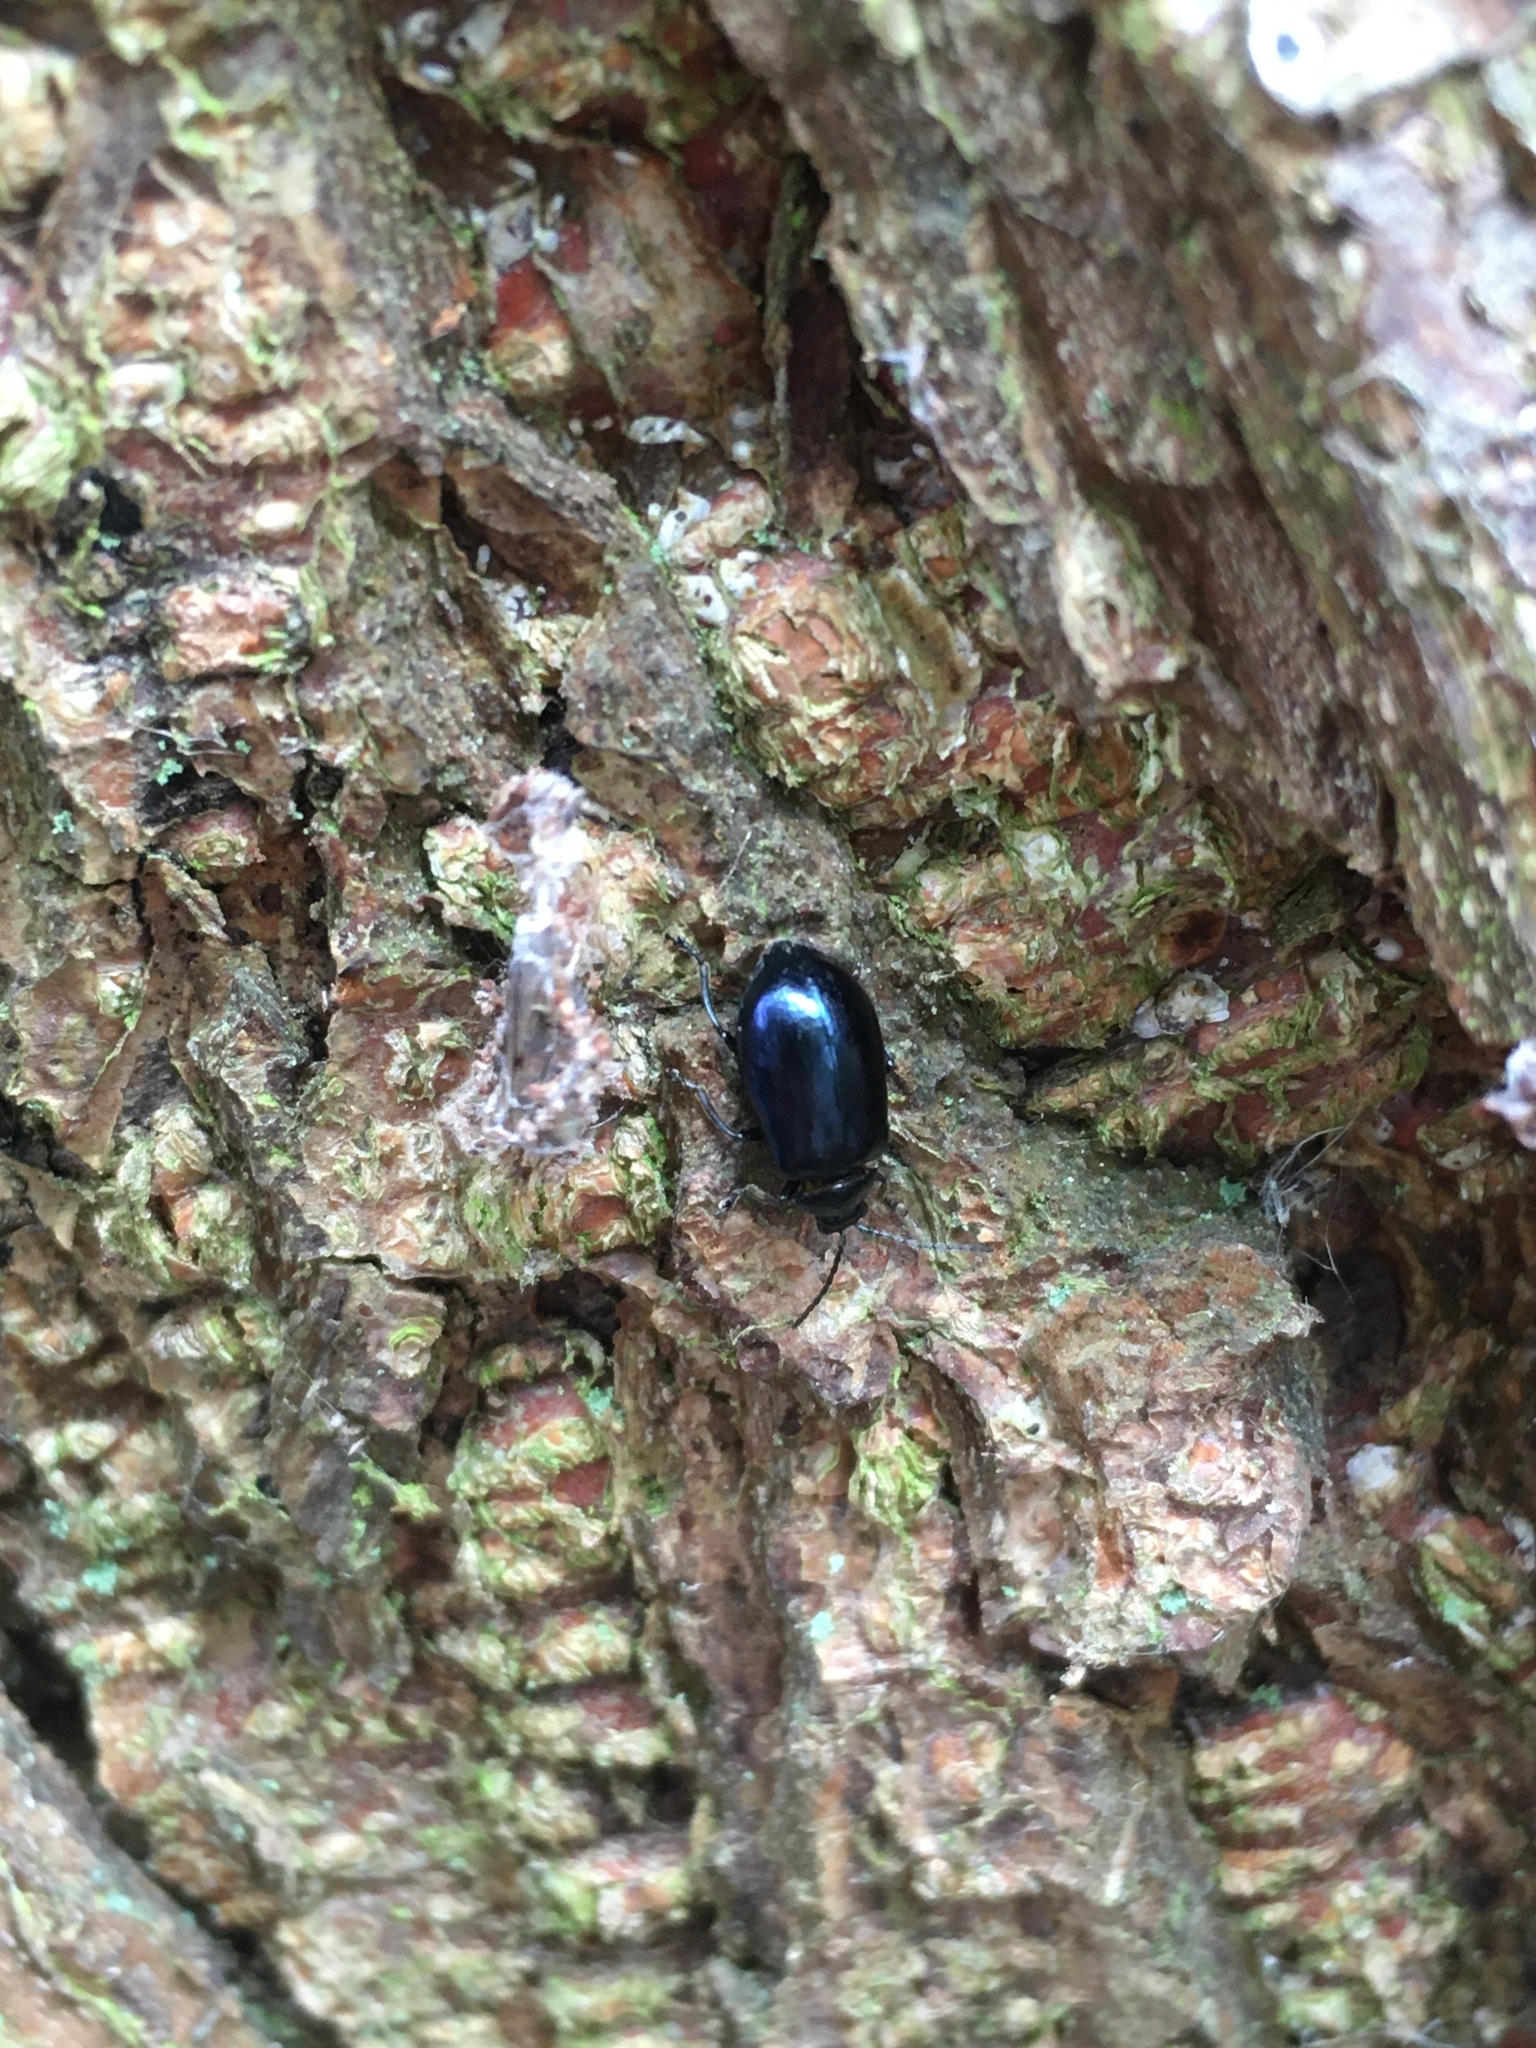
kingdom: Animalia
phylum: Arthropoda
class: Insecta
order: Coleoptera
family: Chrysomelidae
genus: Agelastica
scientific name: Agelastica alni
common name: Alder leaf beetle
